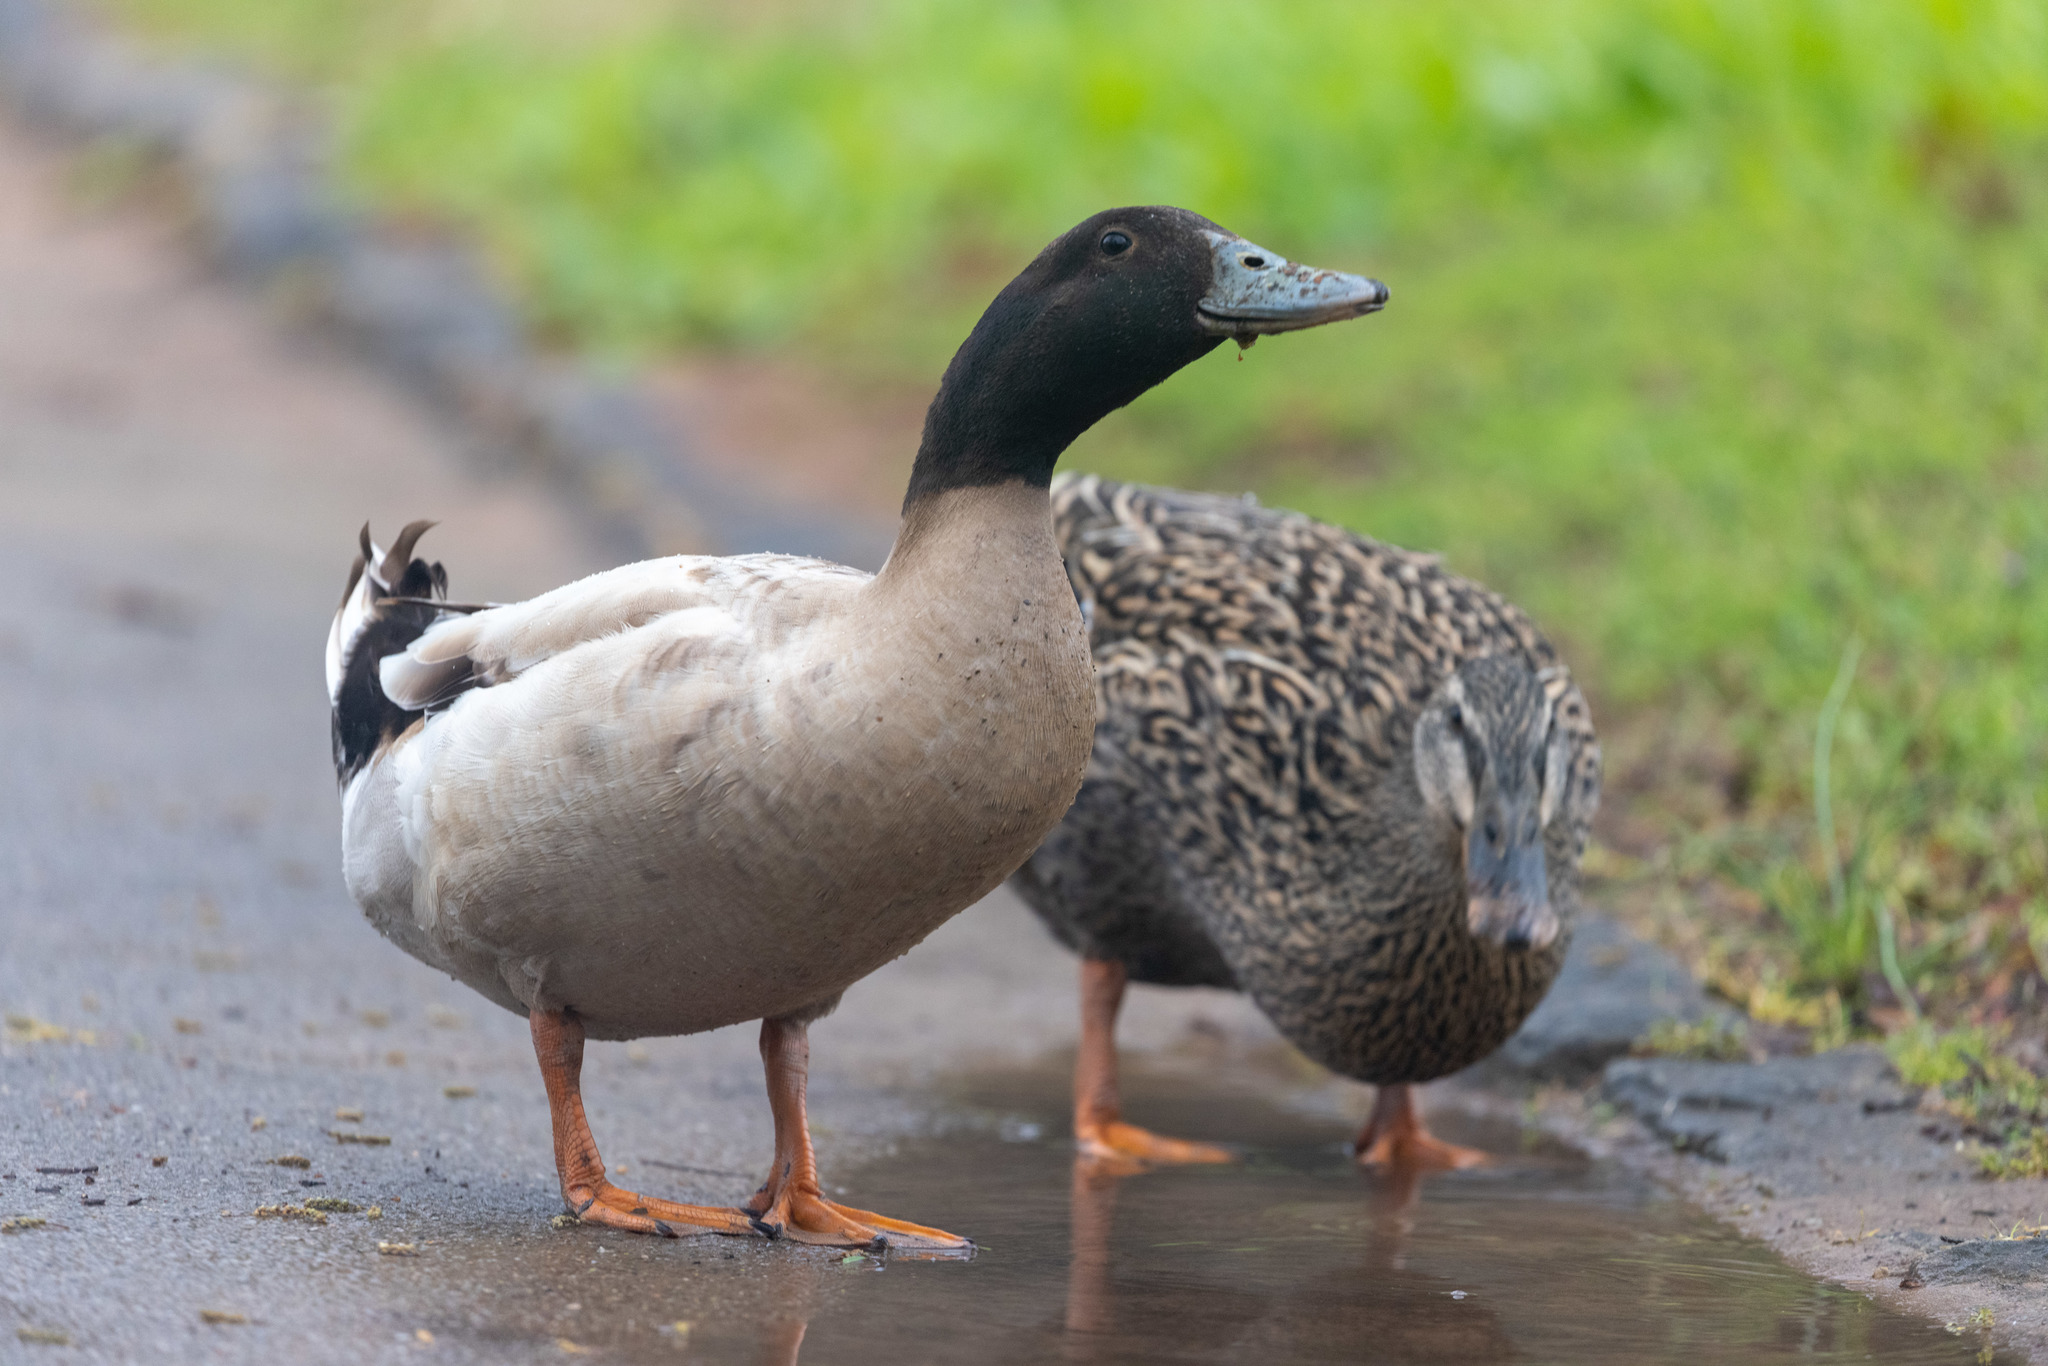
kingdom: Animalia
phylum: Chordata
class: Aves
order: Anseriformes
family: Anatidae
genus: Anas
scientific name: Anas platyrhynchos
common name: Mallard
